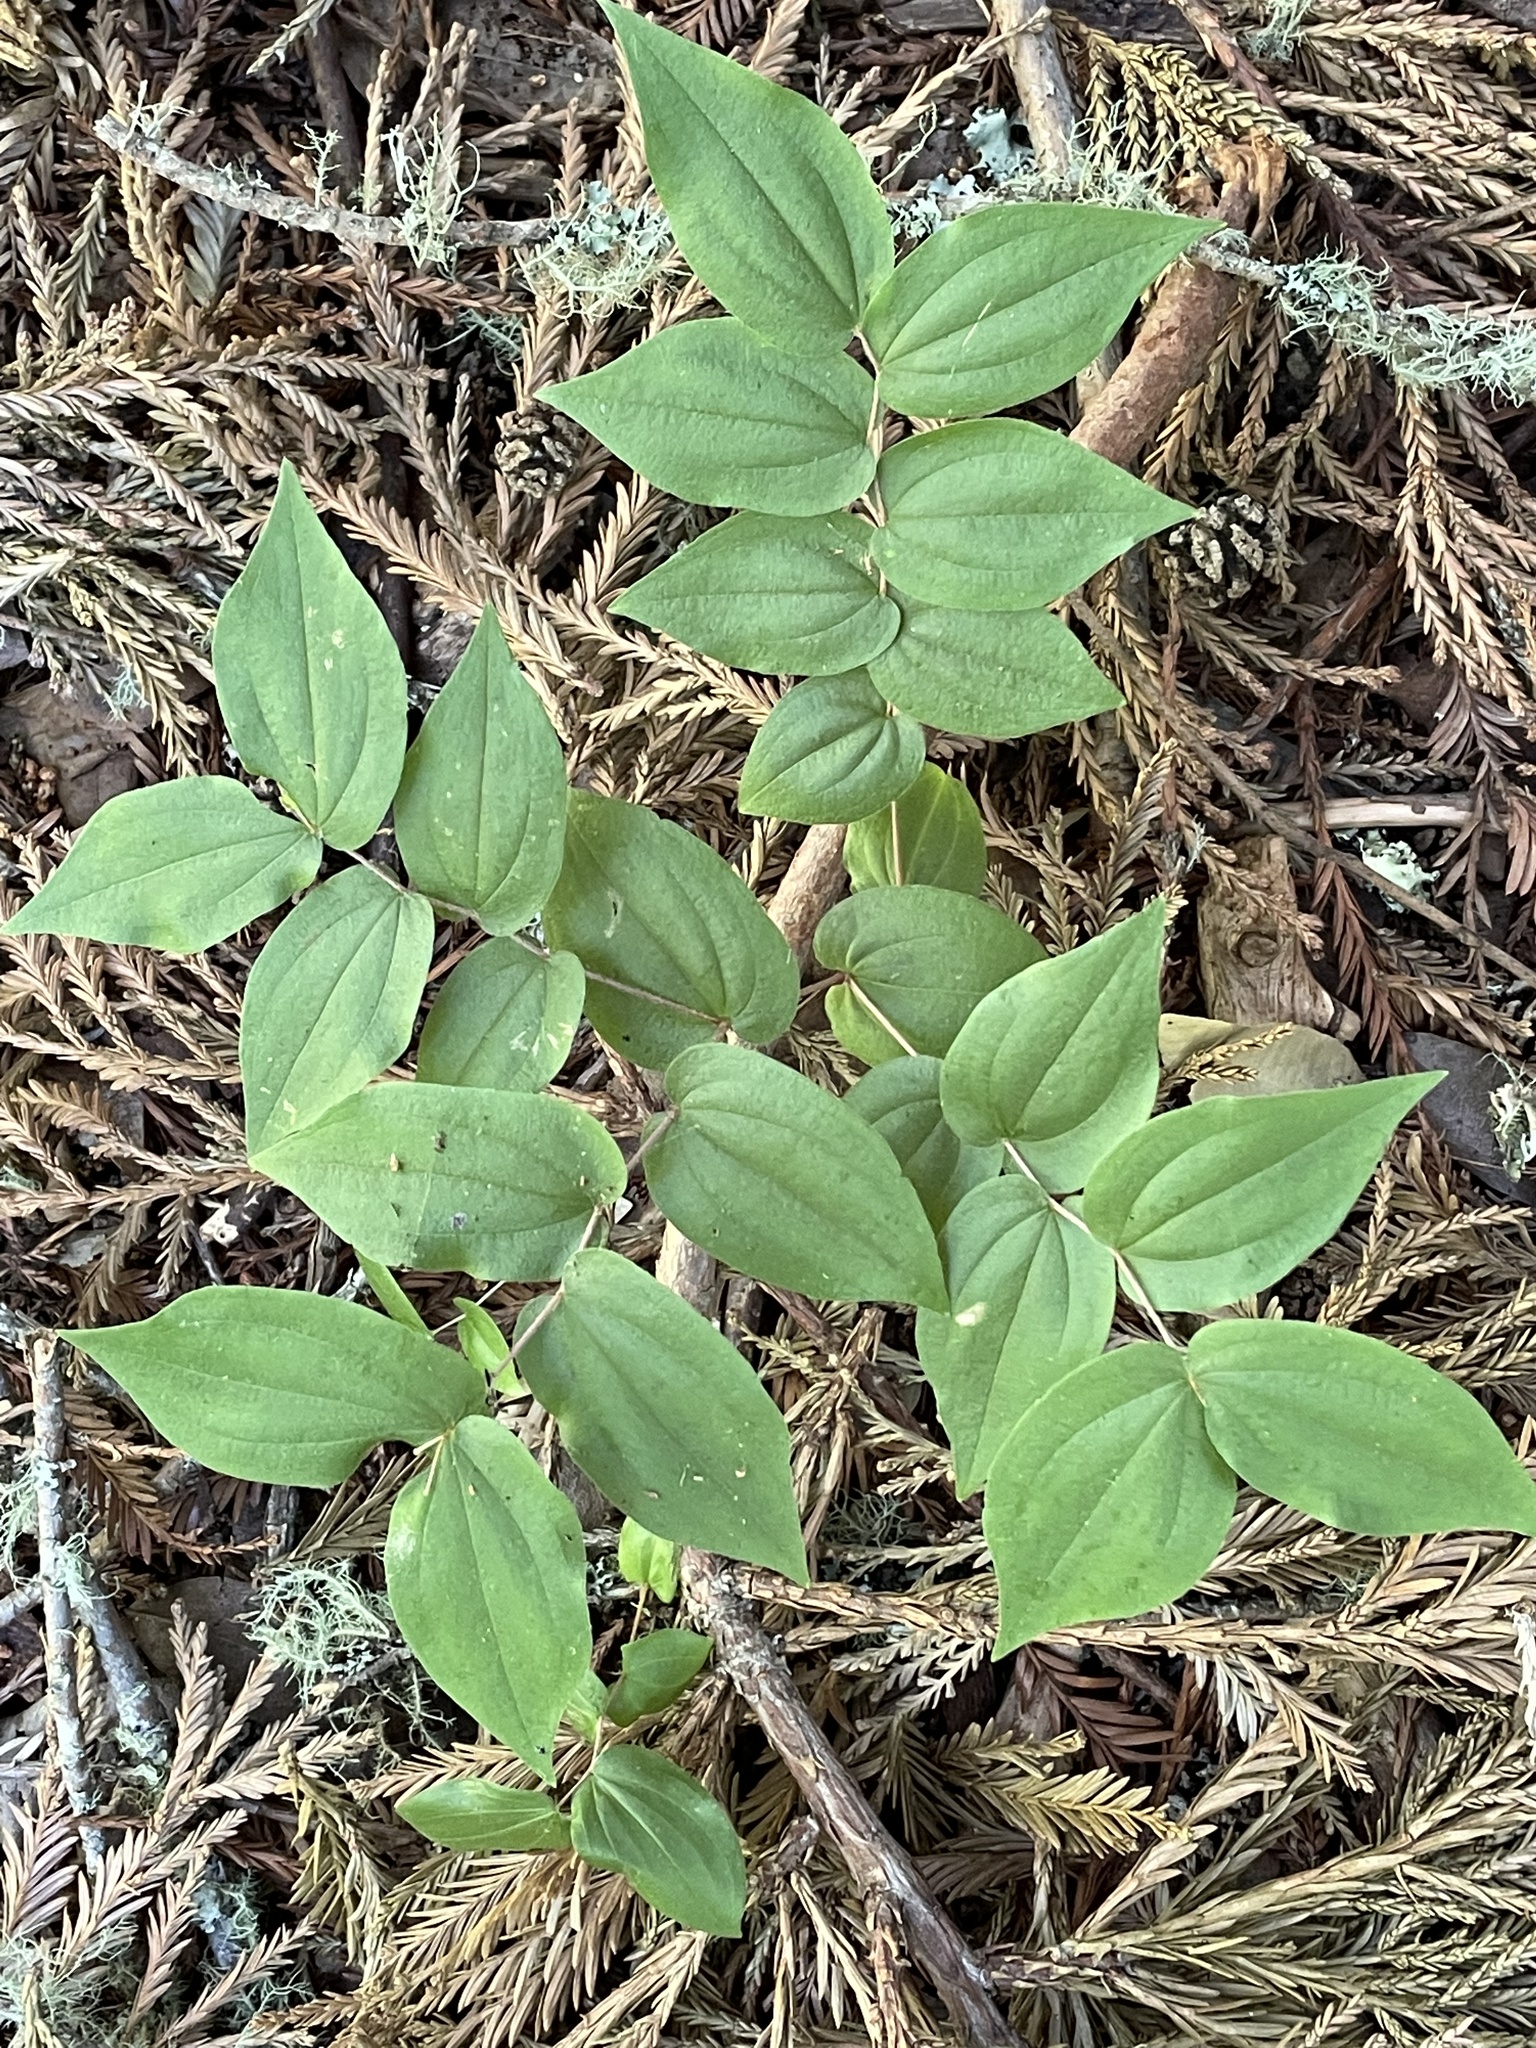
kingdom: Plantae
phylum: Tracheophyta
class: Liliopsida
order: Liliales
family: Liliaceae
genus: Prosartes
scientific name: Prosartes hookeri
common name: Fairy-bells
